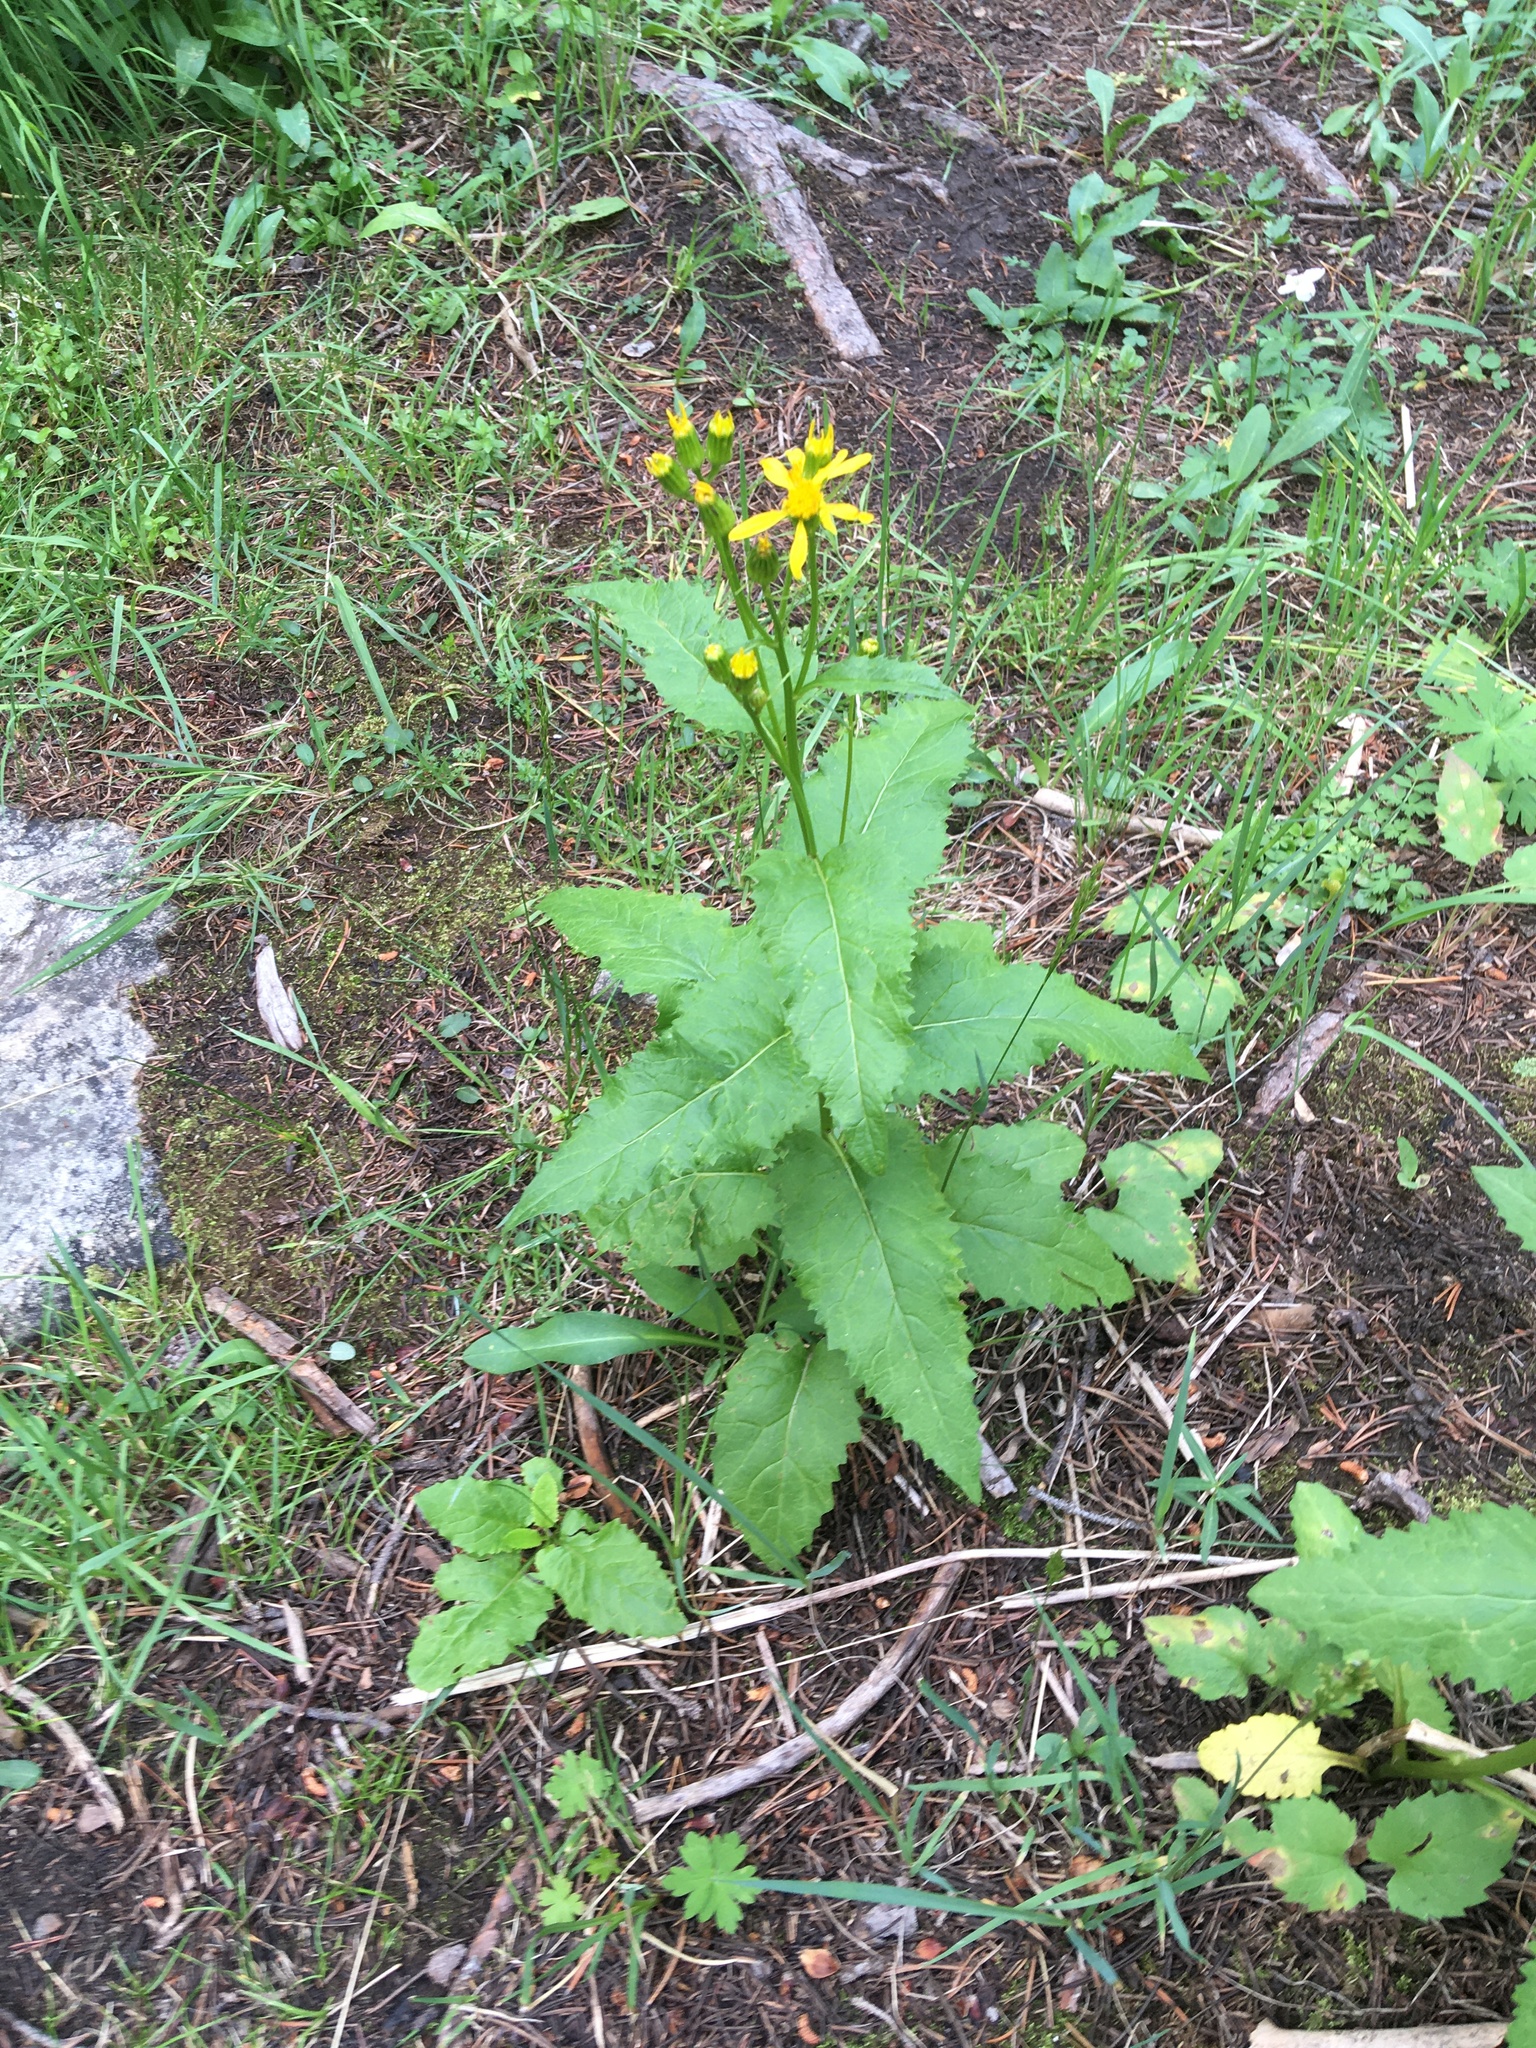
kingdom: Plantae
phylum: Tracheophyta
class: Magnoliopsida
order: Asterales
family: Asteraceae
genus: Senecio
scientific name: Senecio triangularis
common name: Arrowleaf butterweed
